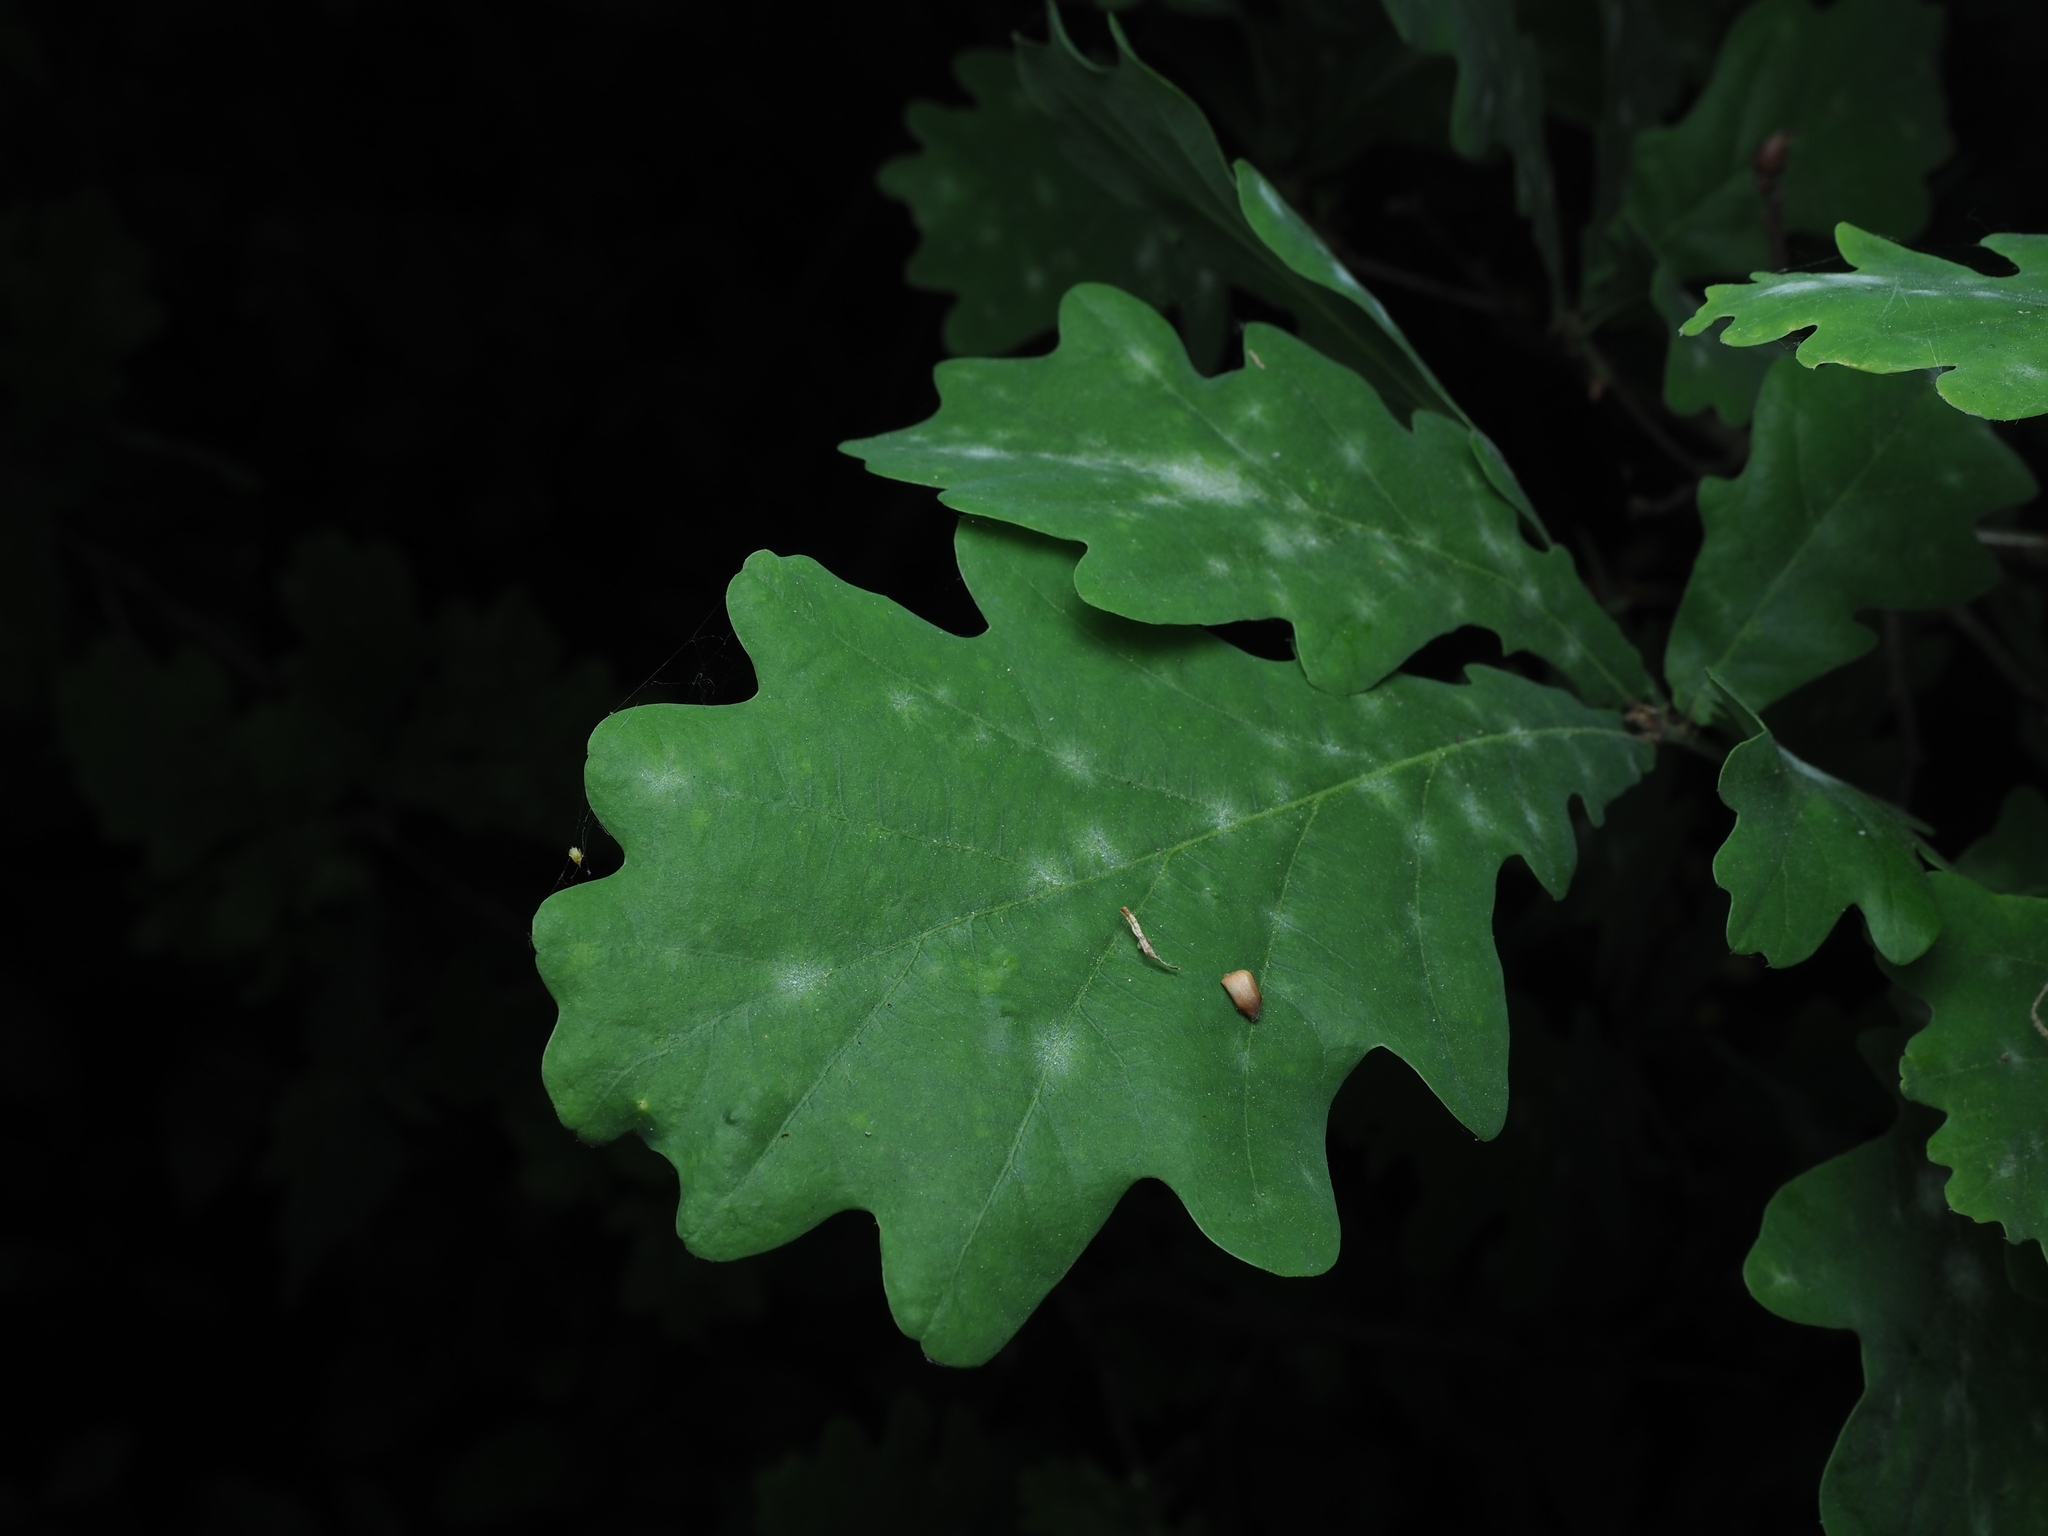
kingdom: Fungi
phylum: Ascomycota
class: Leotiomycetes
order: Helotiales
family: Erysiphaceae
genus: Erysiphe
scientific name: Erysiphe
